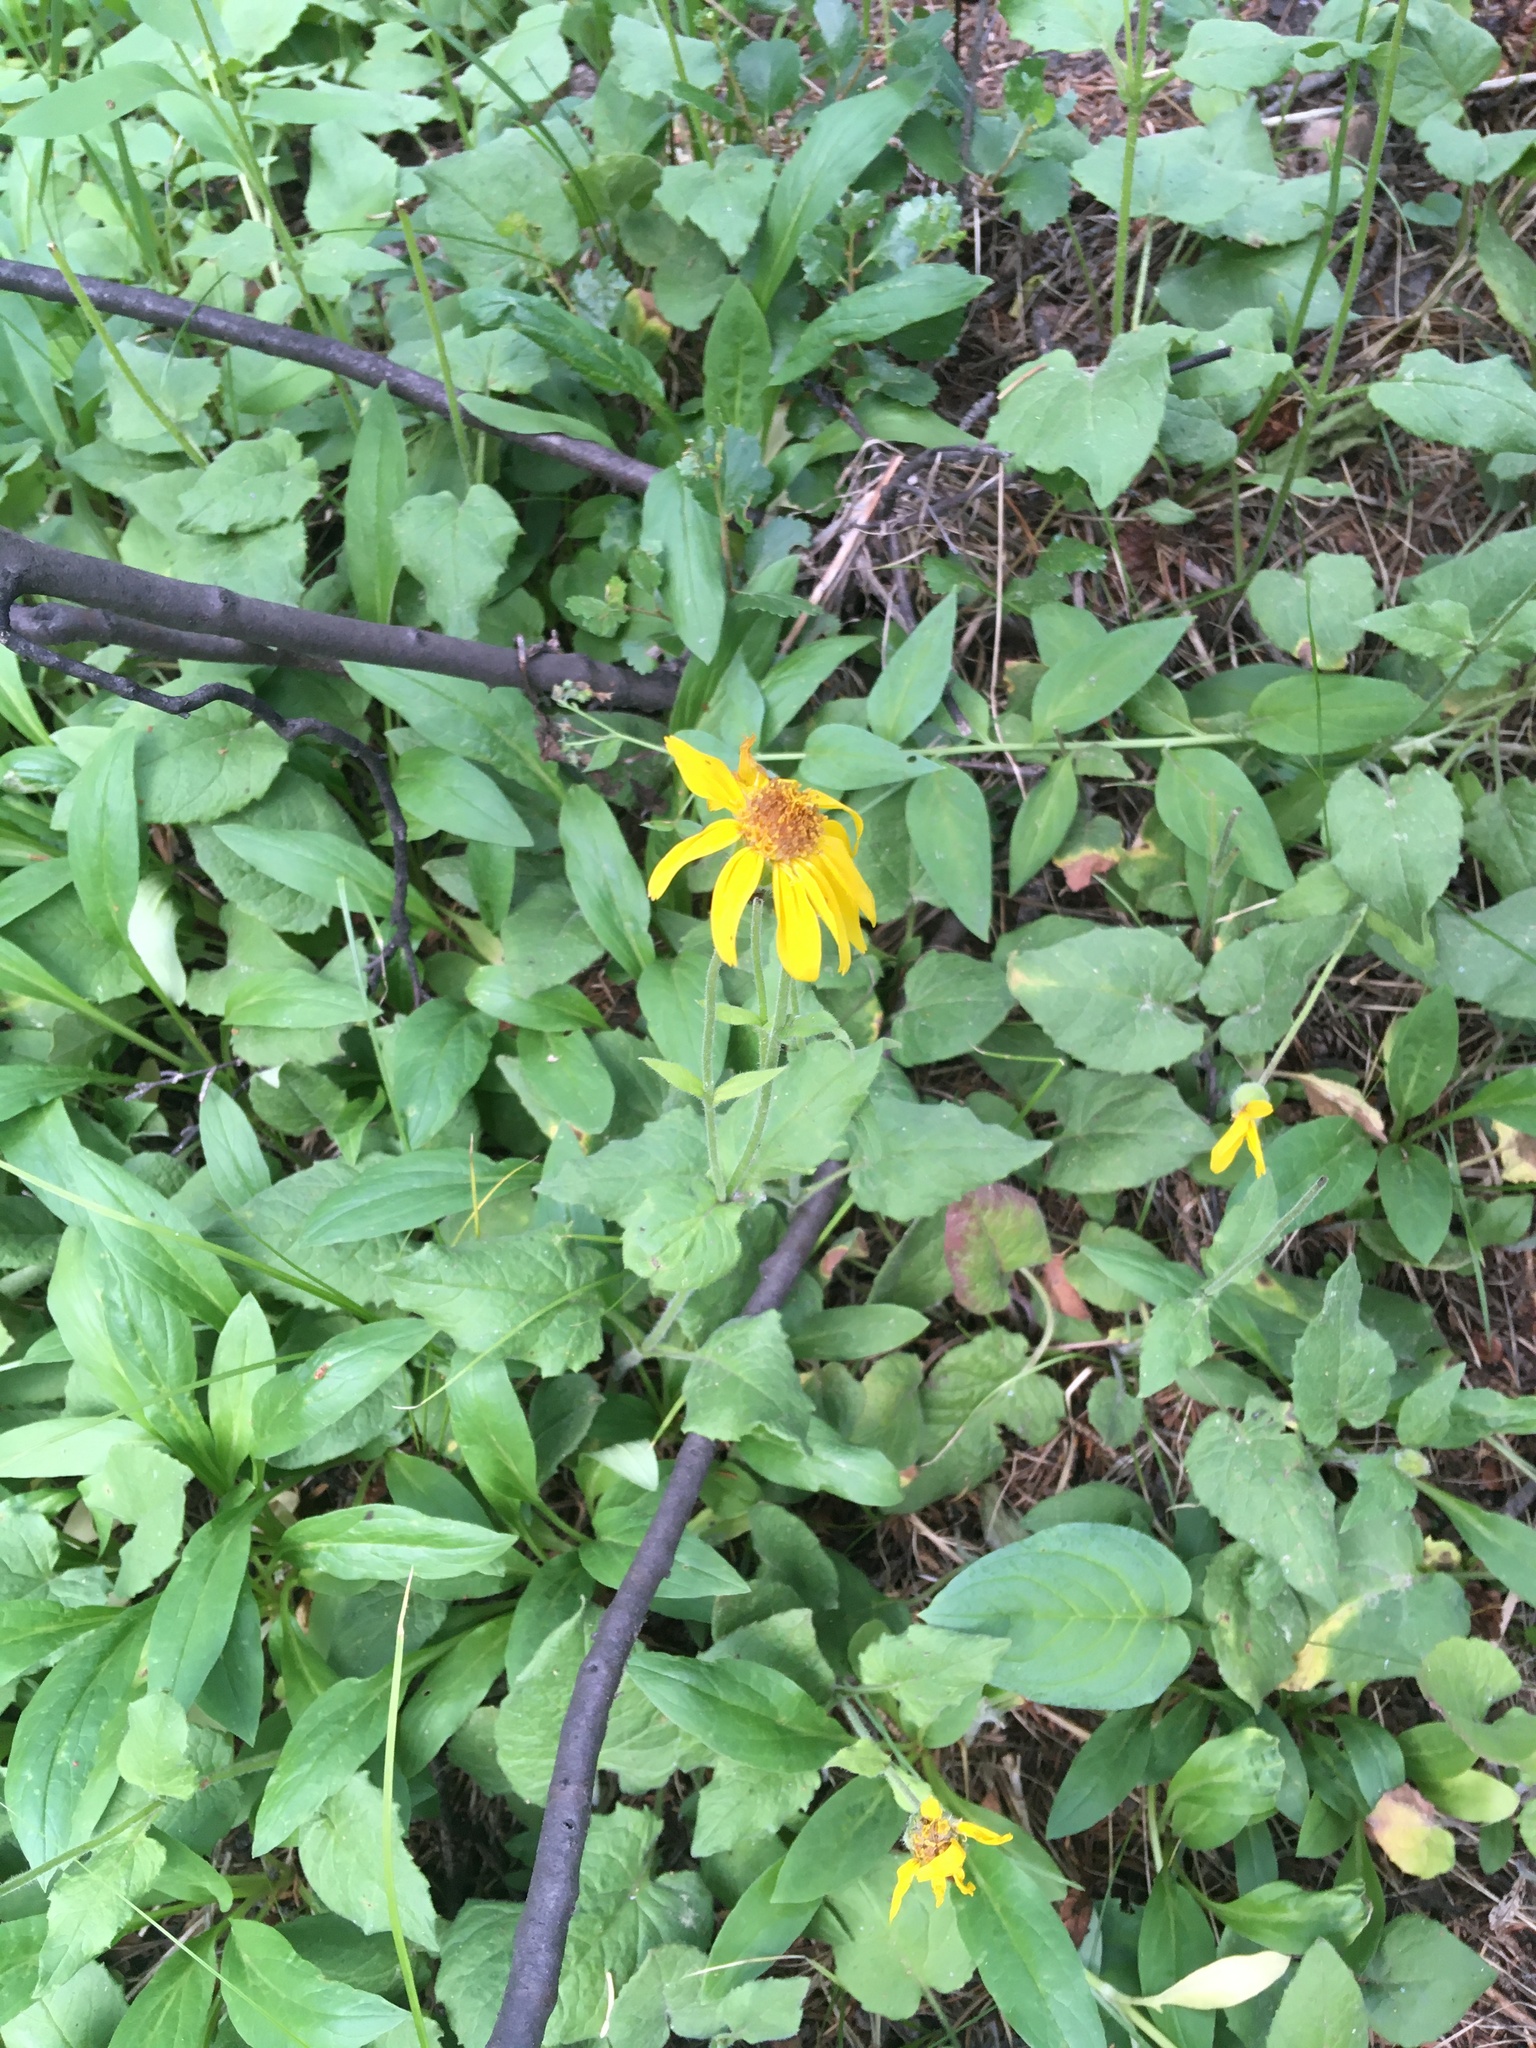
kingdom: Plantae
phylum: Tracheophyta
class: Magnoliopsida
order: Asterales
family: Asteraceae
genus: Arnica
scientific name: Arnica cordifolia
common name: Heart-leaf arnica
